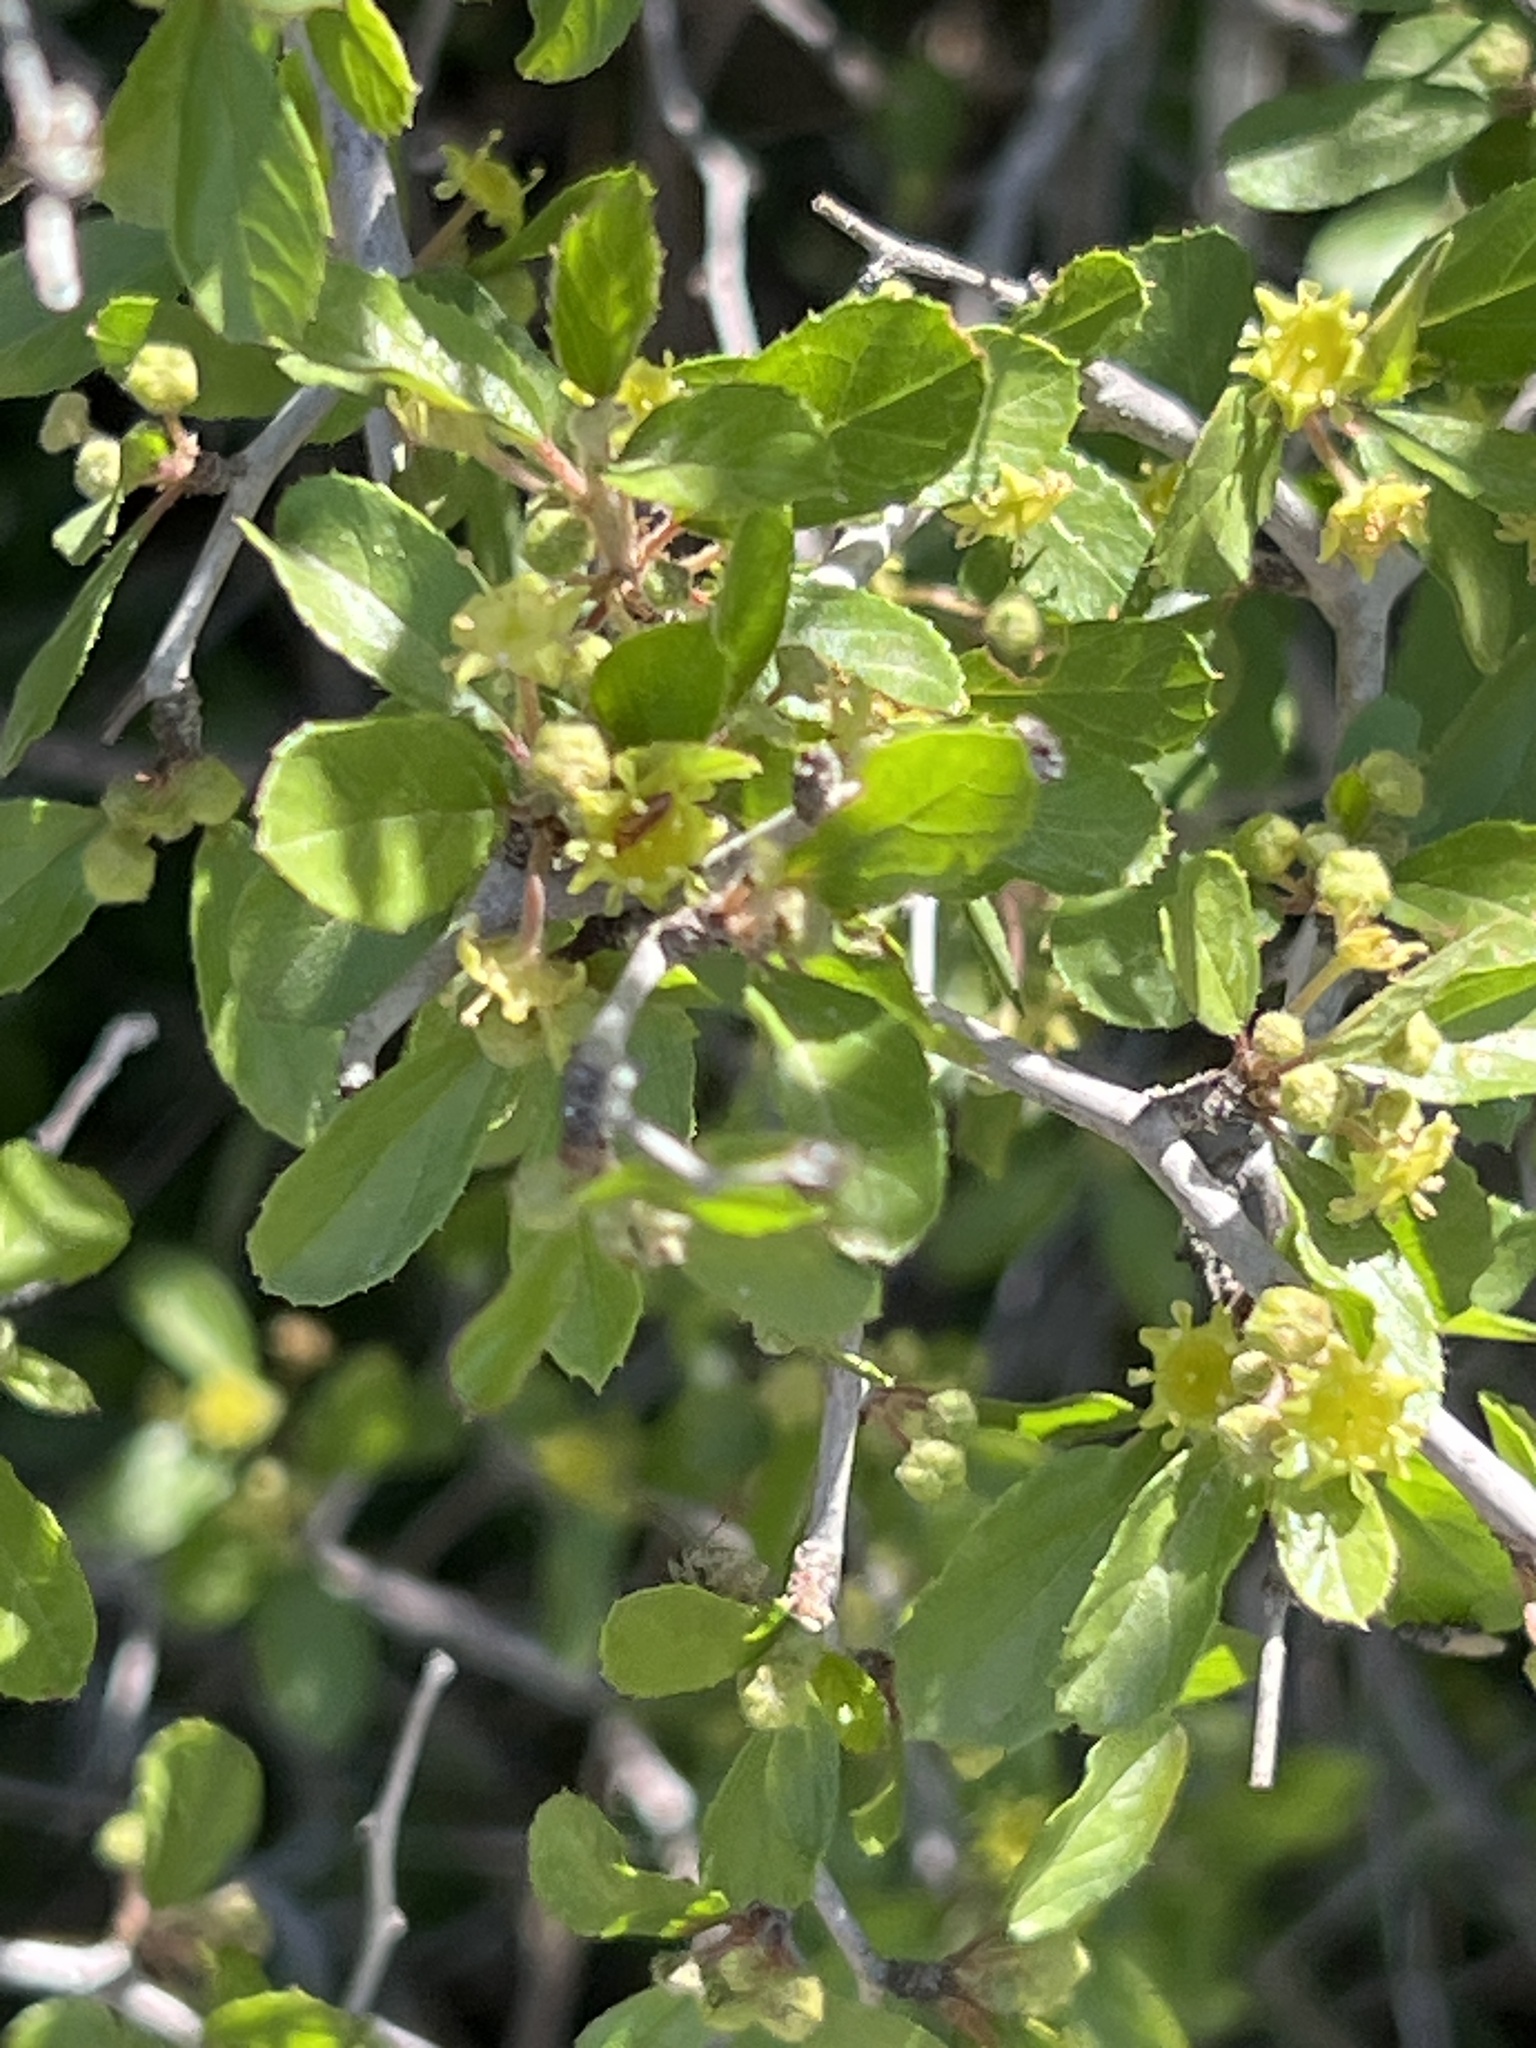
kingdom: Plantae
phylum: Tracheophyta
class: Magnoliopsida
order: Rosales
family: Rhamnaceae
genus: Colubrina
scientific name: Colubrina texensis
